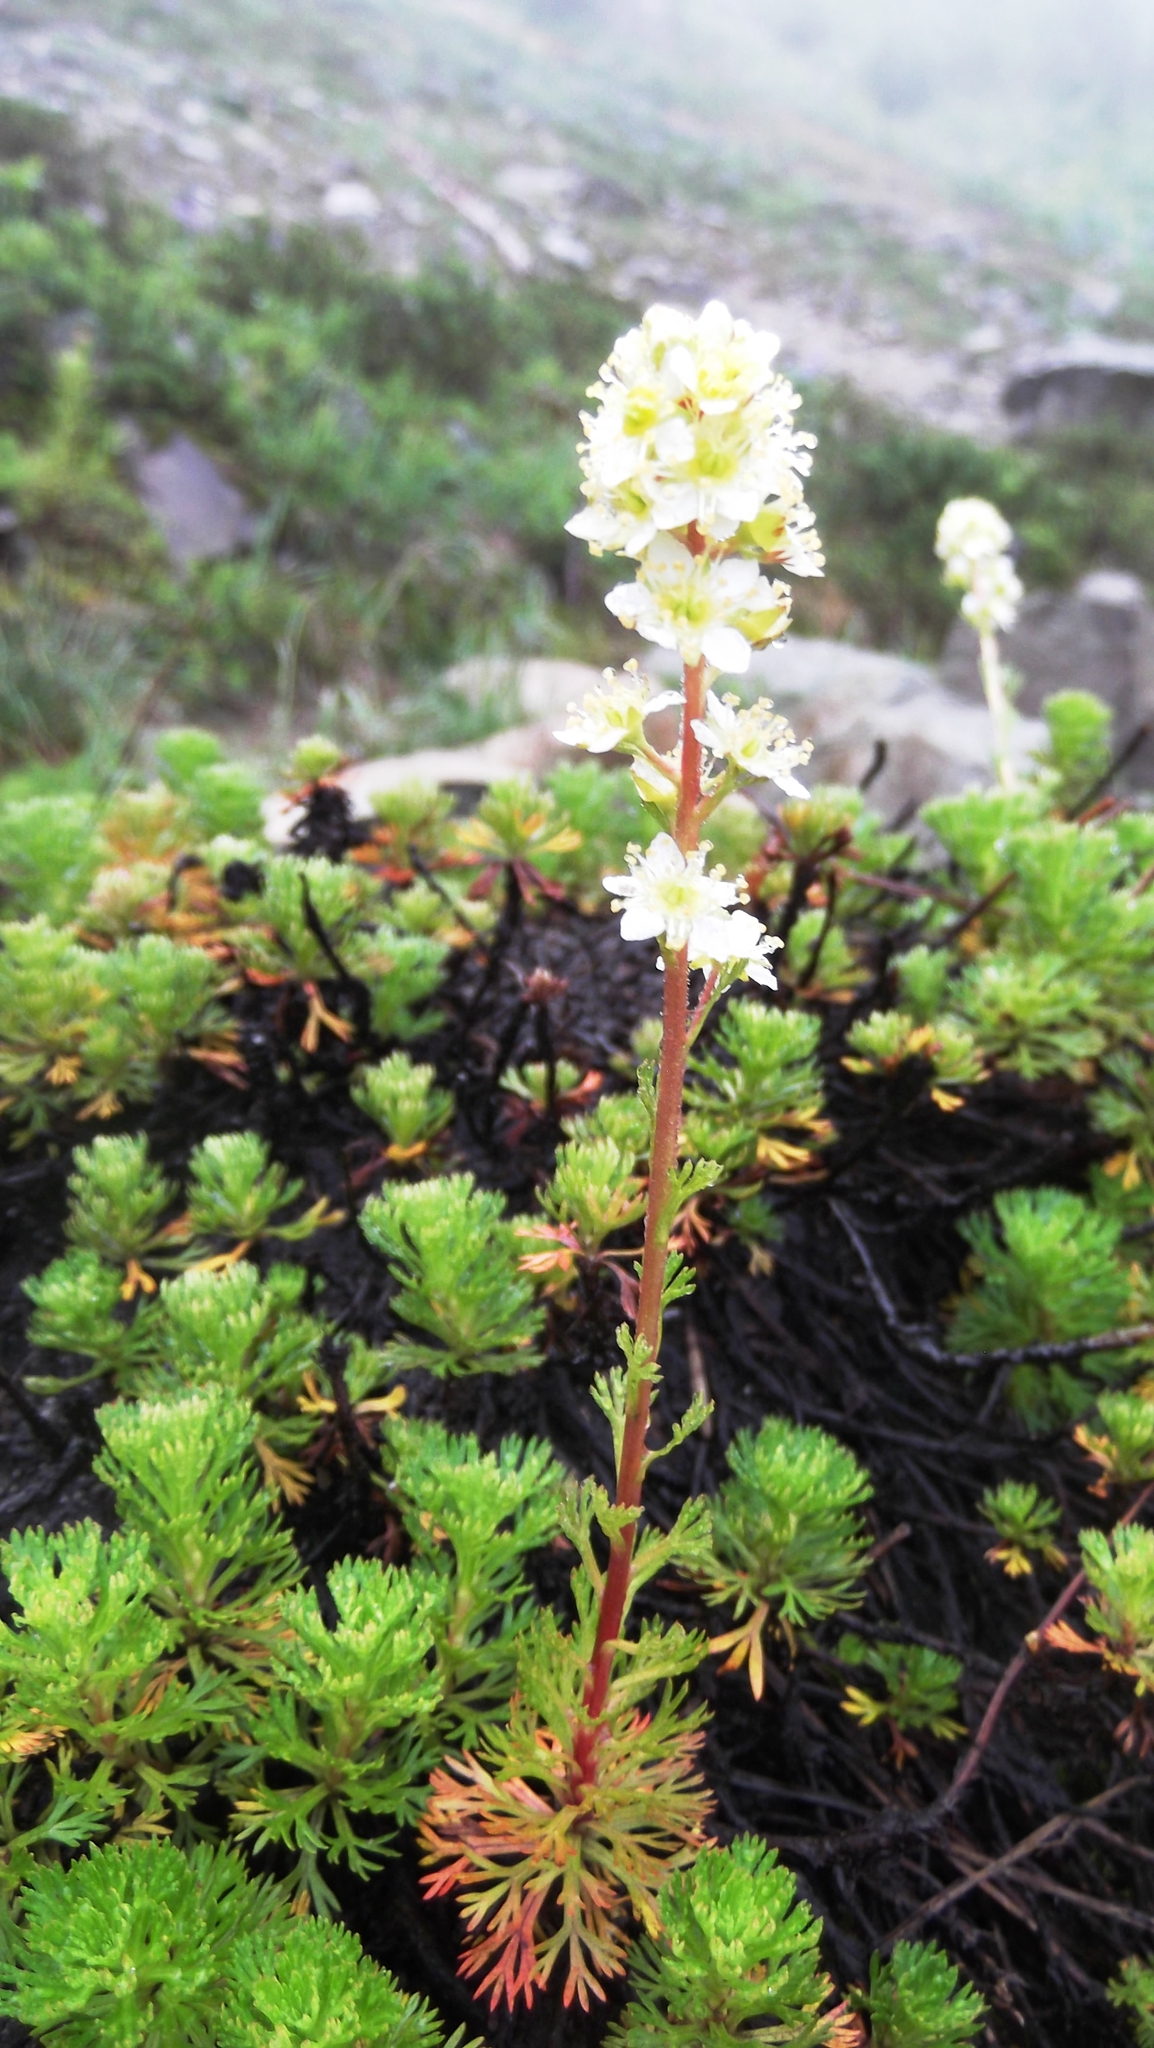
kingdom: Plantae
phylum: Tracheophyta
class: Magnoliopsida
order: Rosales
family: Rosaceae
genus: Luetkea
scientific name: Luetkea pectinata
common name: Partridgefoot
